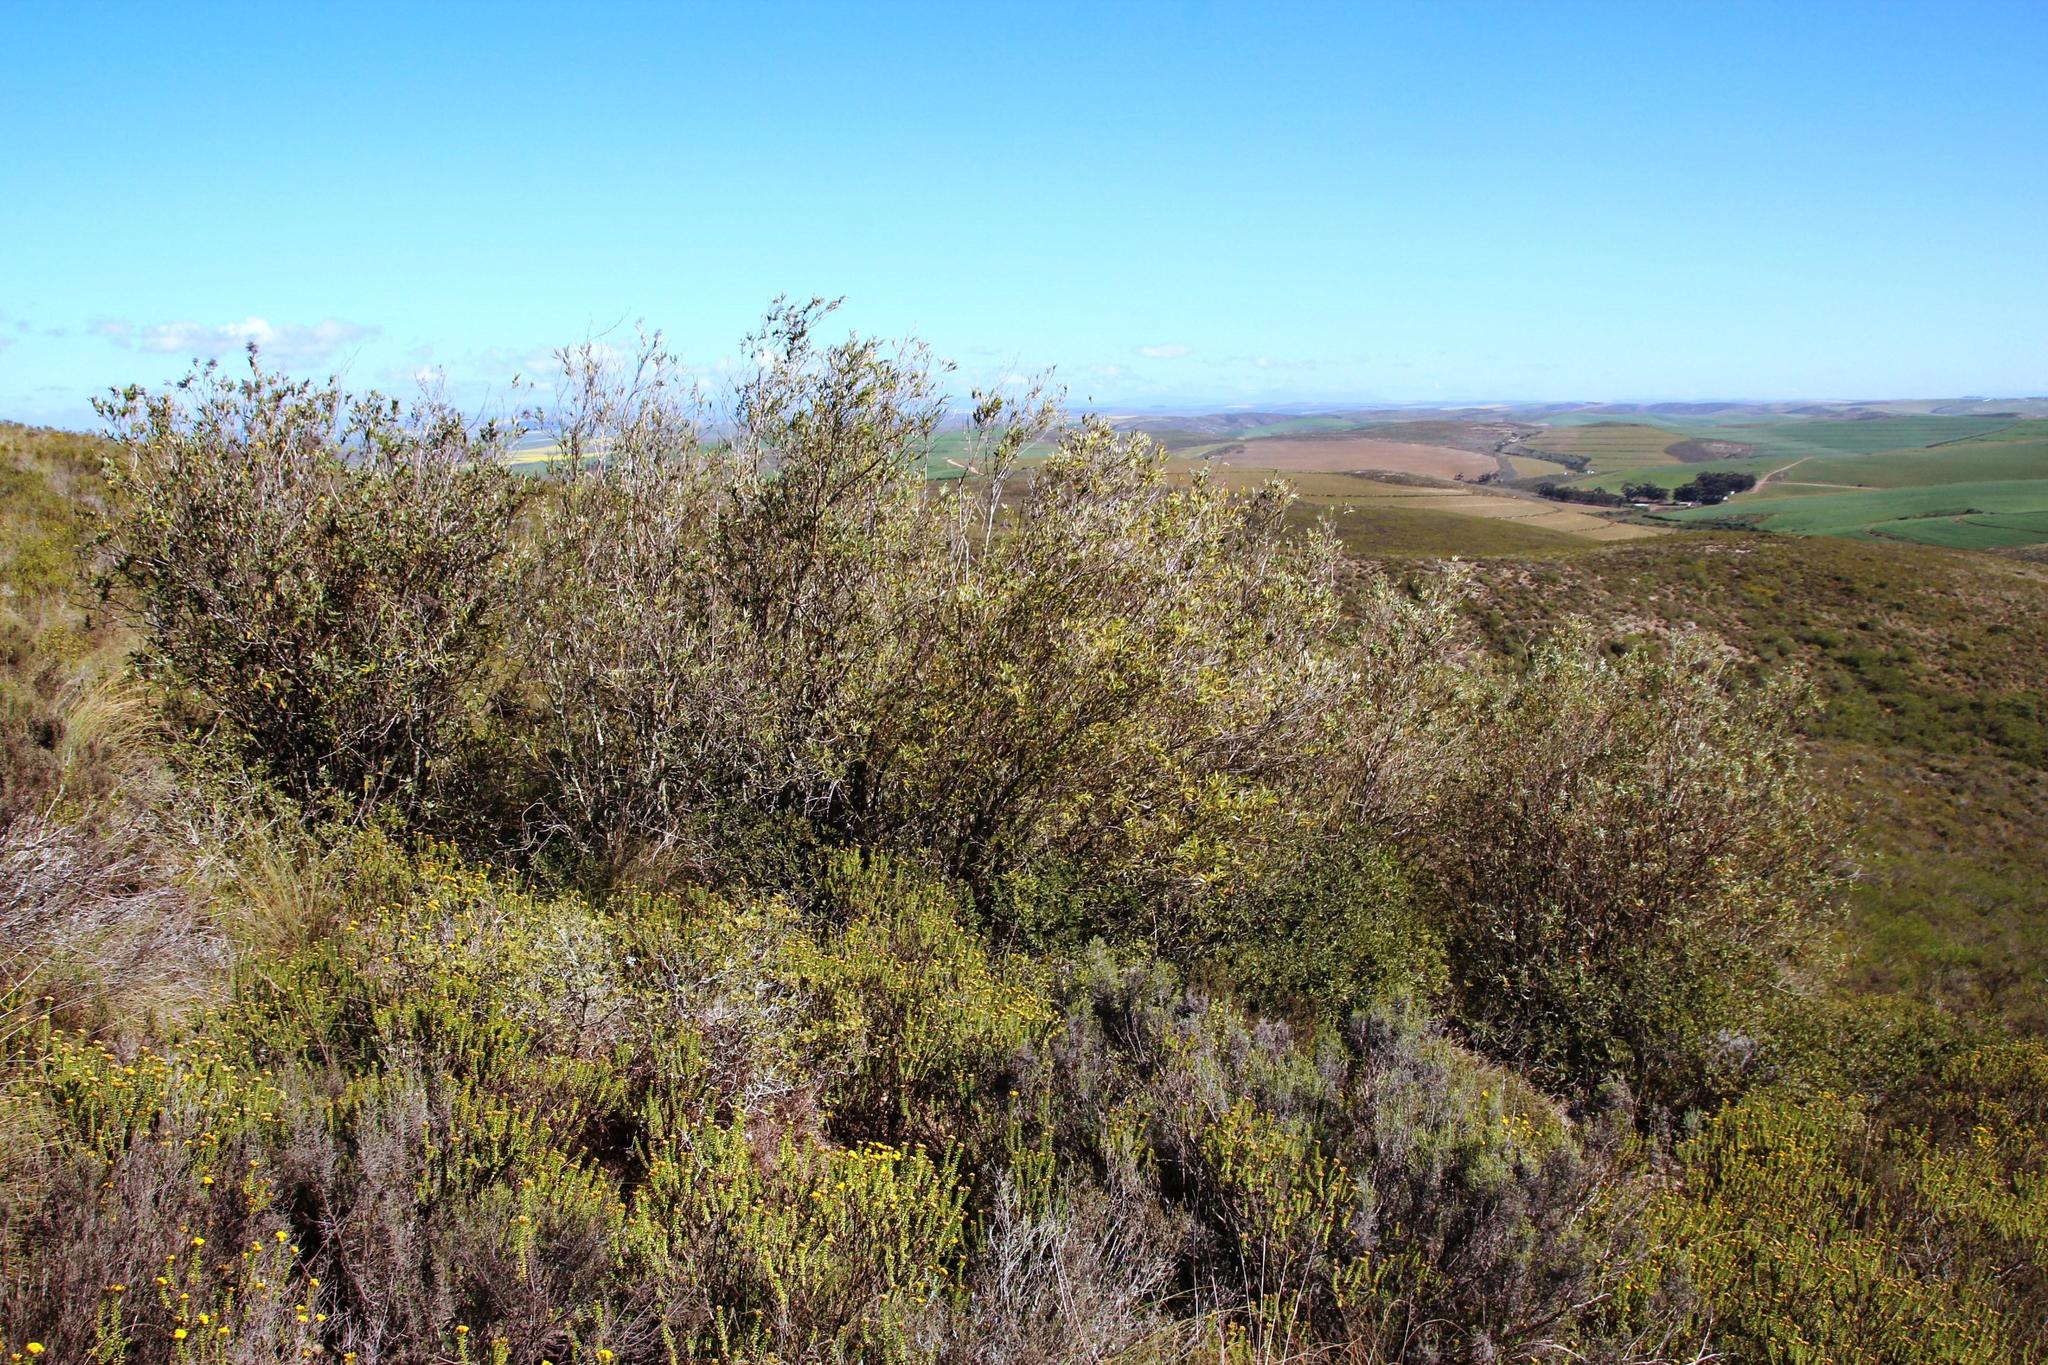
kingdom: Plantae
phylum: Tracheophyta
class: Magnoliopsida
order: Lamiales
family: Scrophulariaceae
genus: Buddleja
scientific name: Buddleja saligna
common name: False olive
